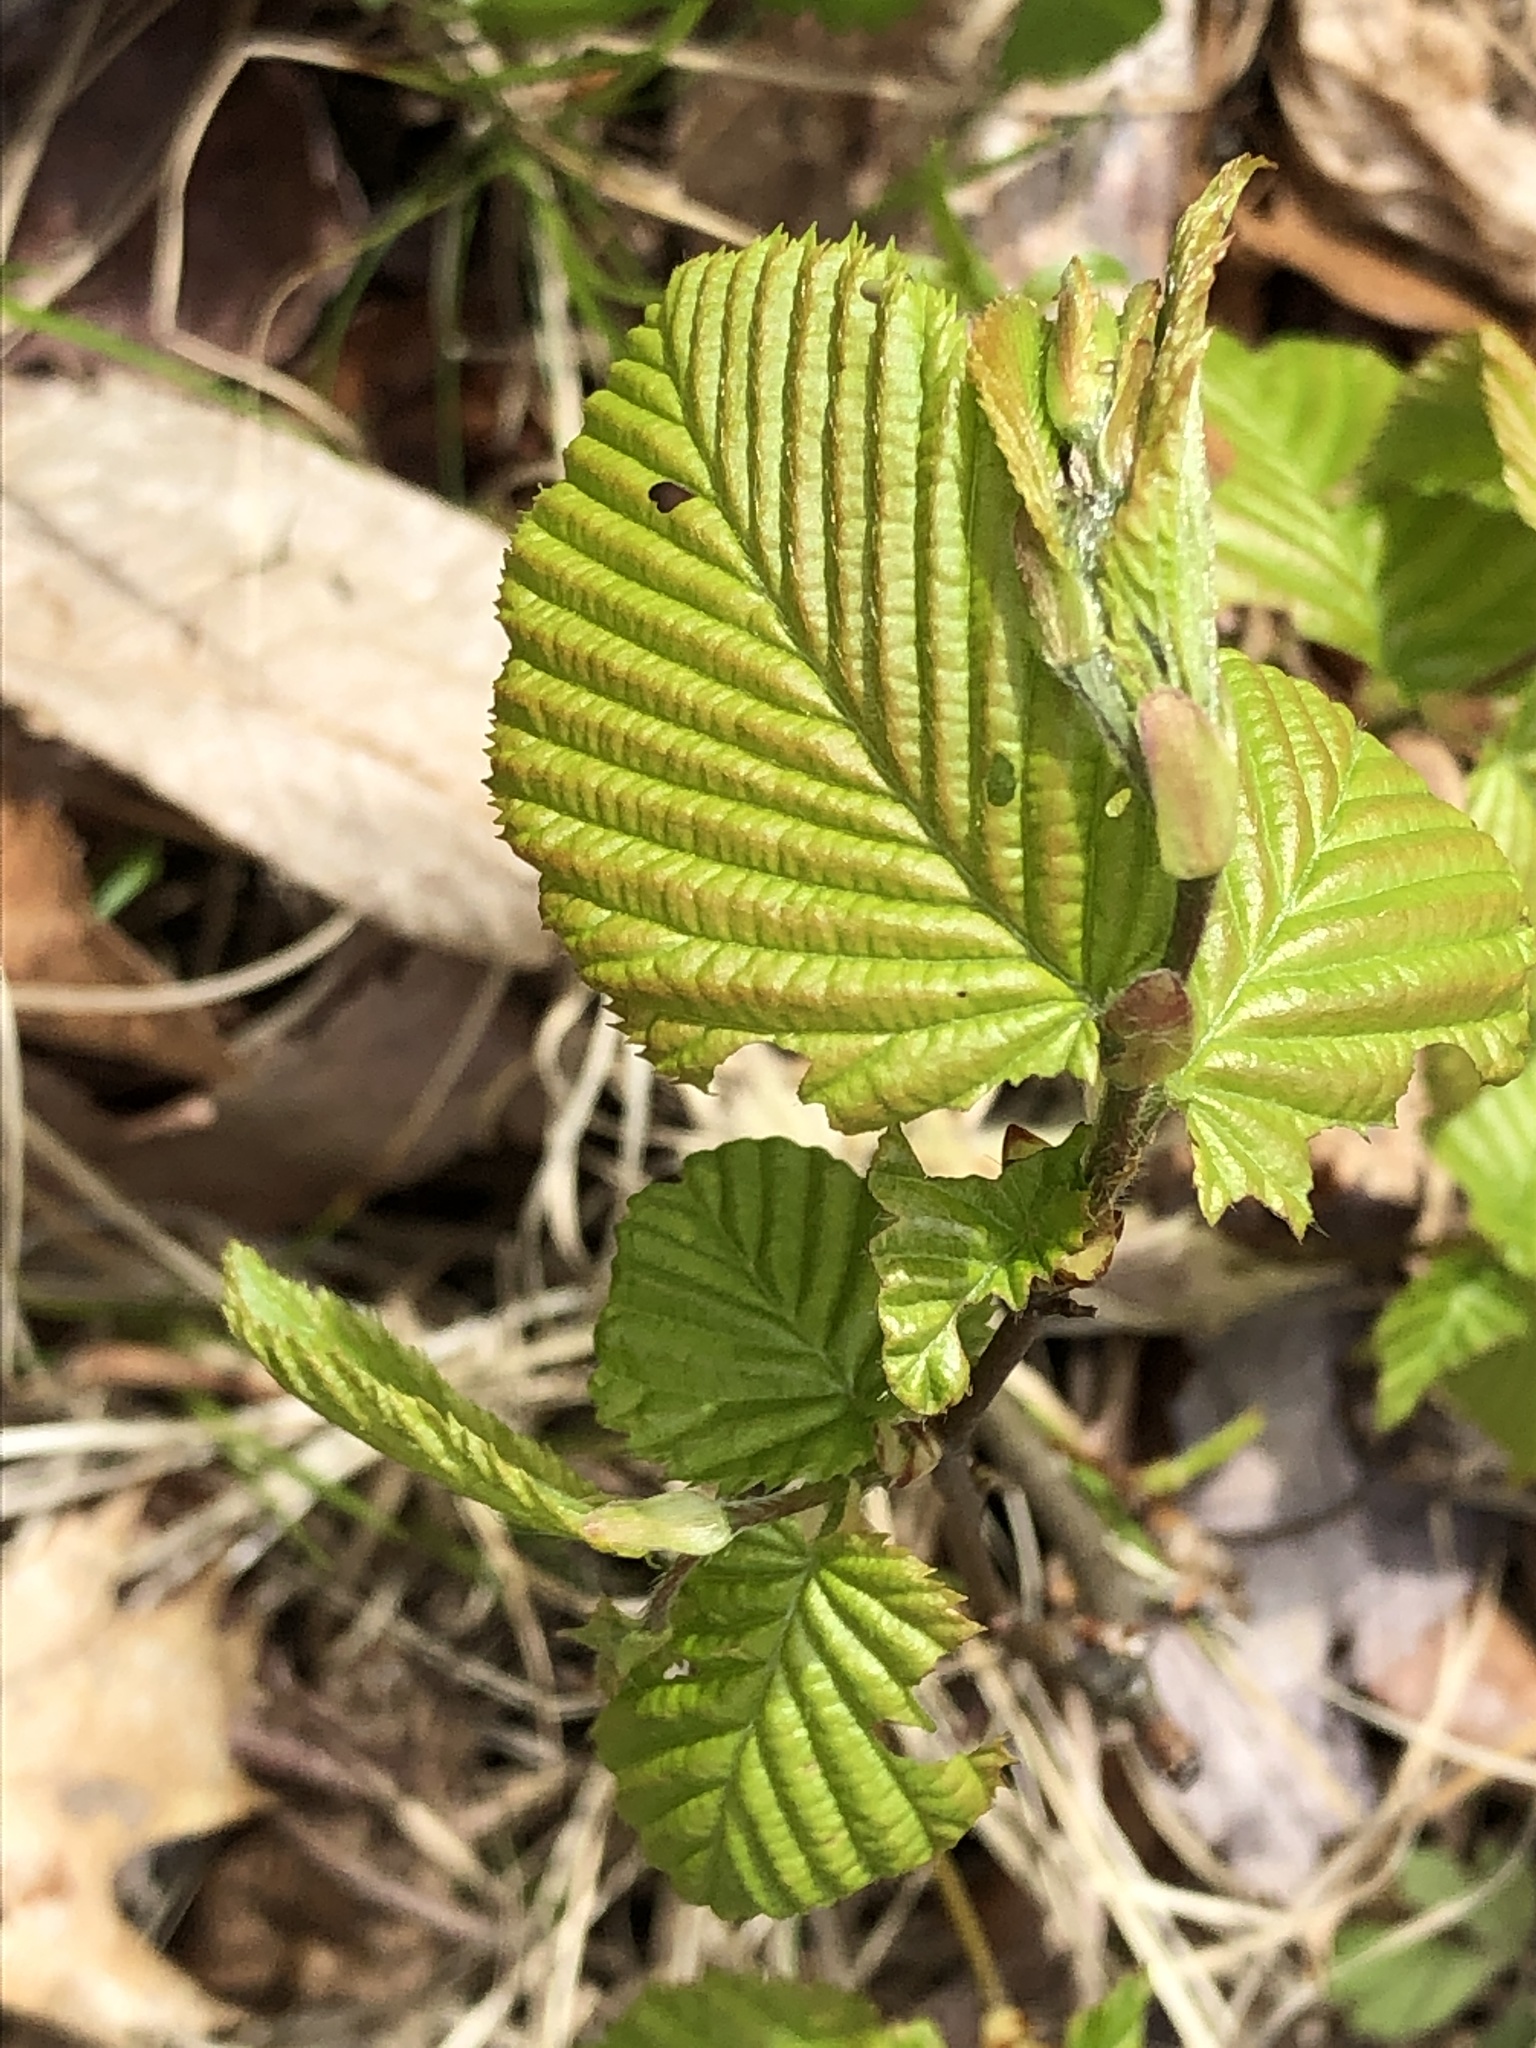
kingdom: Plantae
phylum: Tracheophyta
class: Magnoliopsida
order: Fagales
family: Betulaceae
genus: Alnus
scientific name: Alnus glutinosa
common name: Black alder
